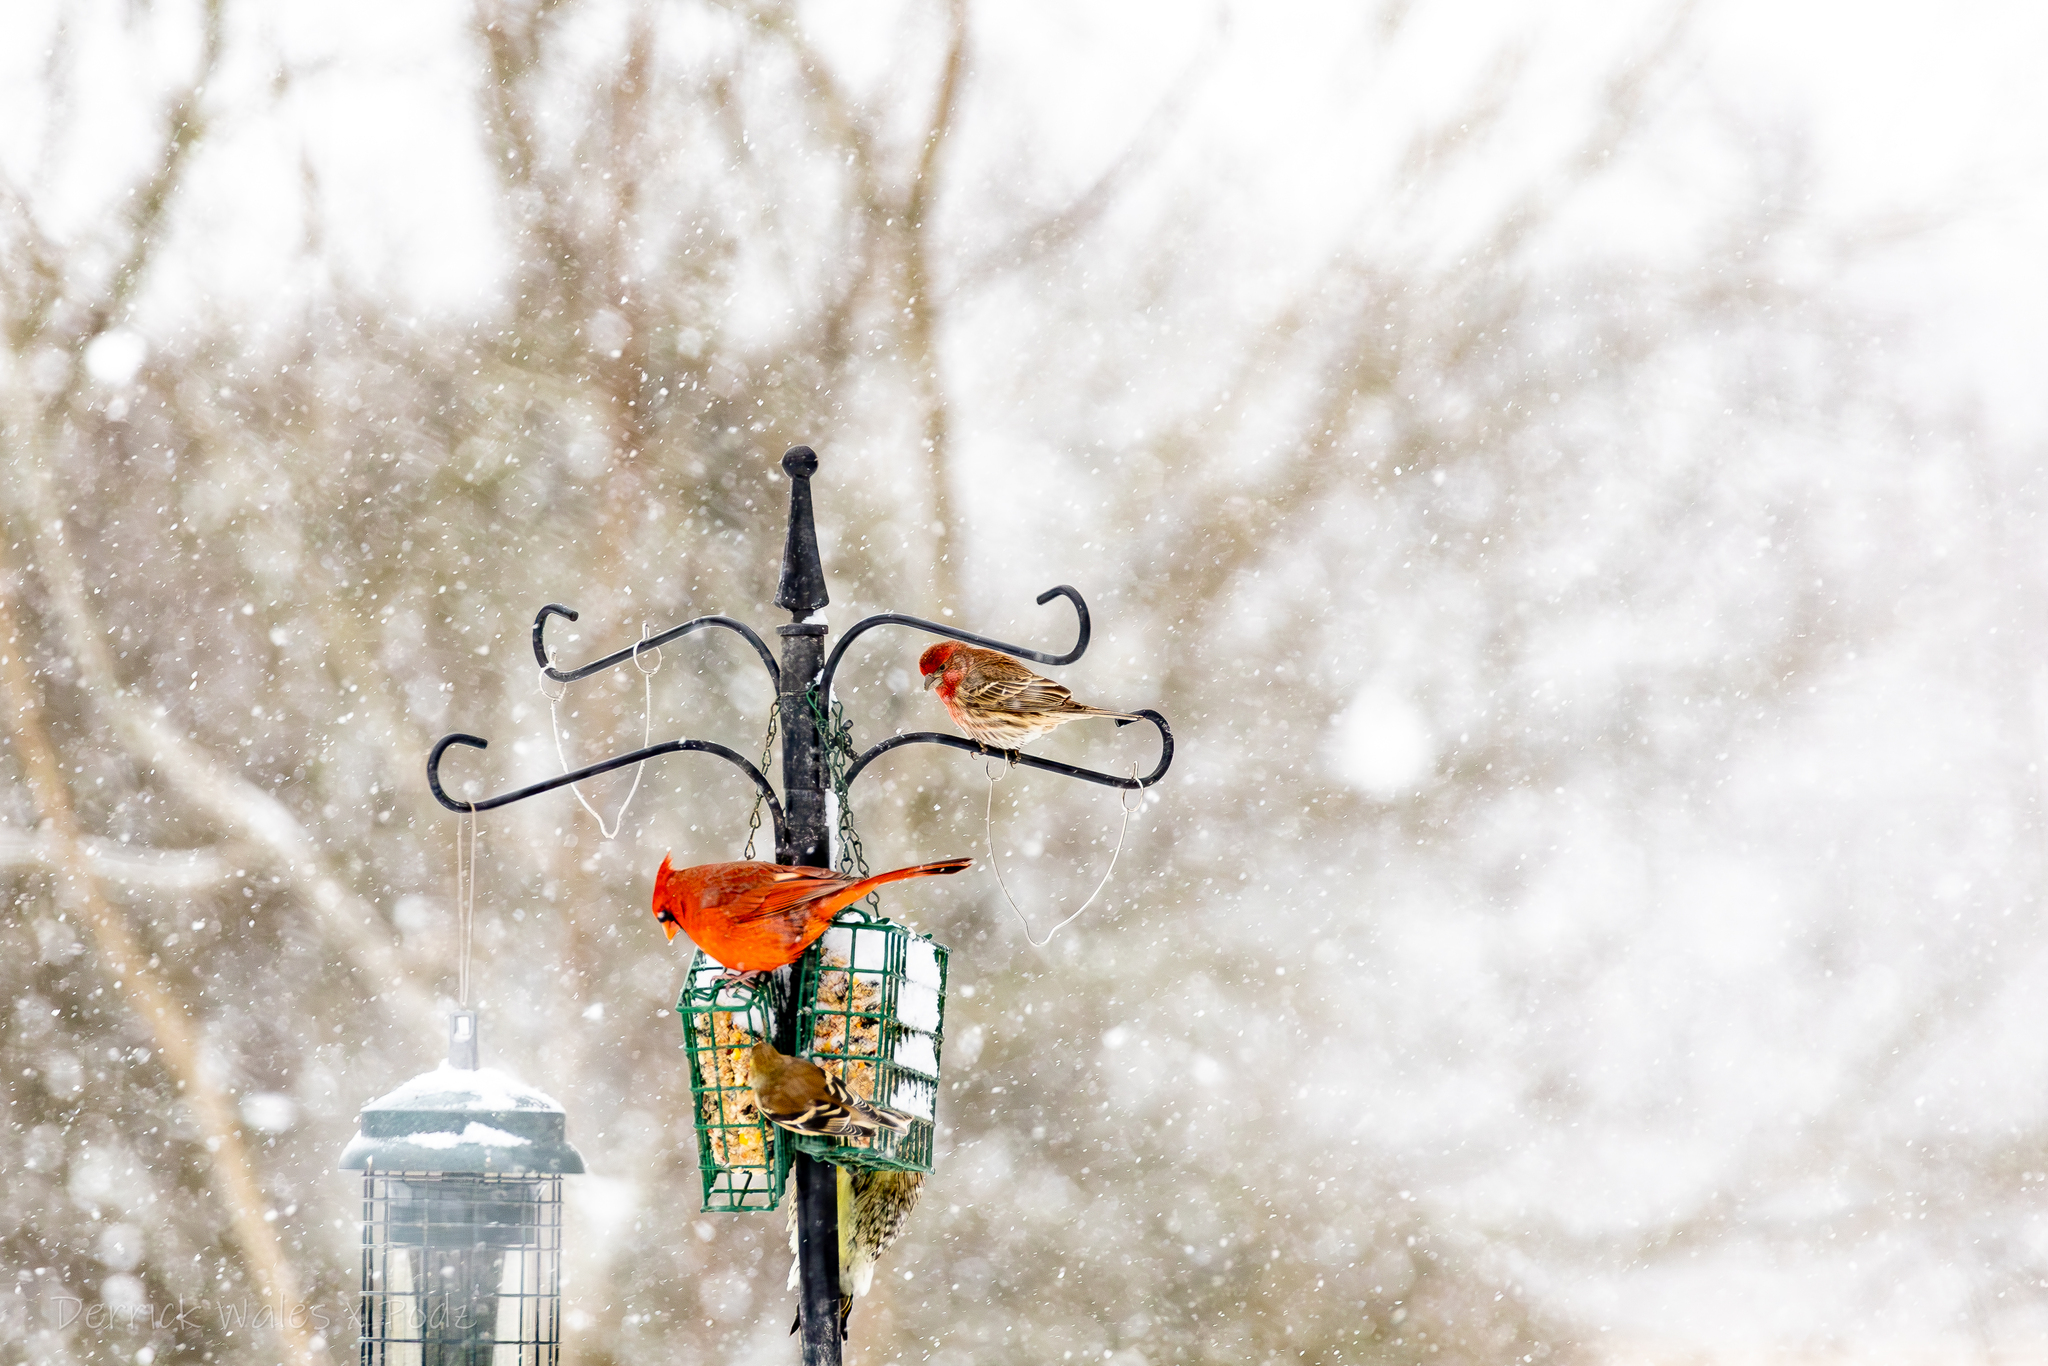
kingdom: Animalia
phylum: Chordata
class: Aves
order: Passeriformes
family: Fringillidae
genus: Haemorhous
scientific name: Haemorhous mexicanus
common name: House finch
